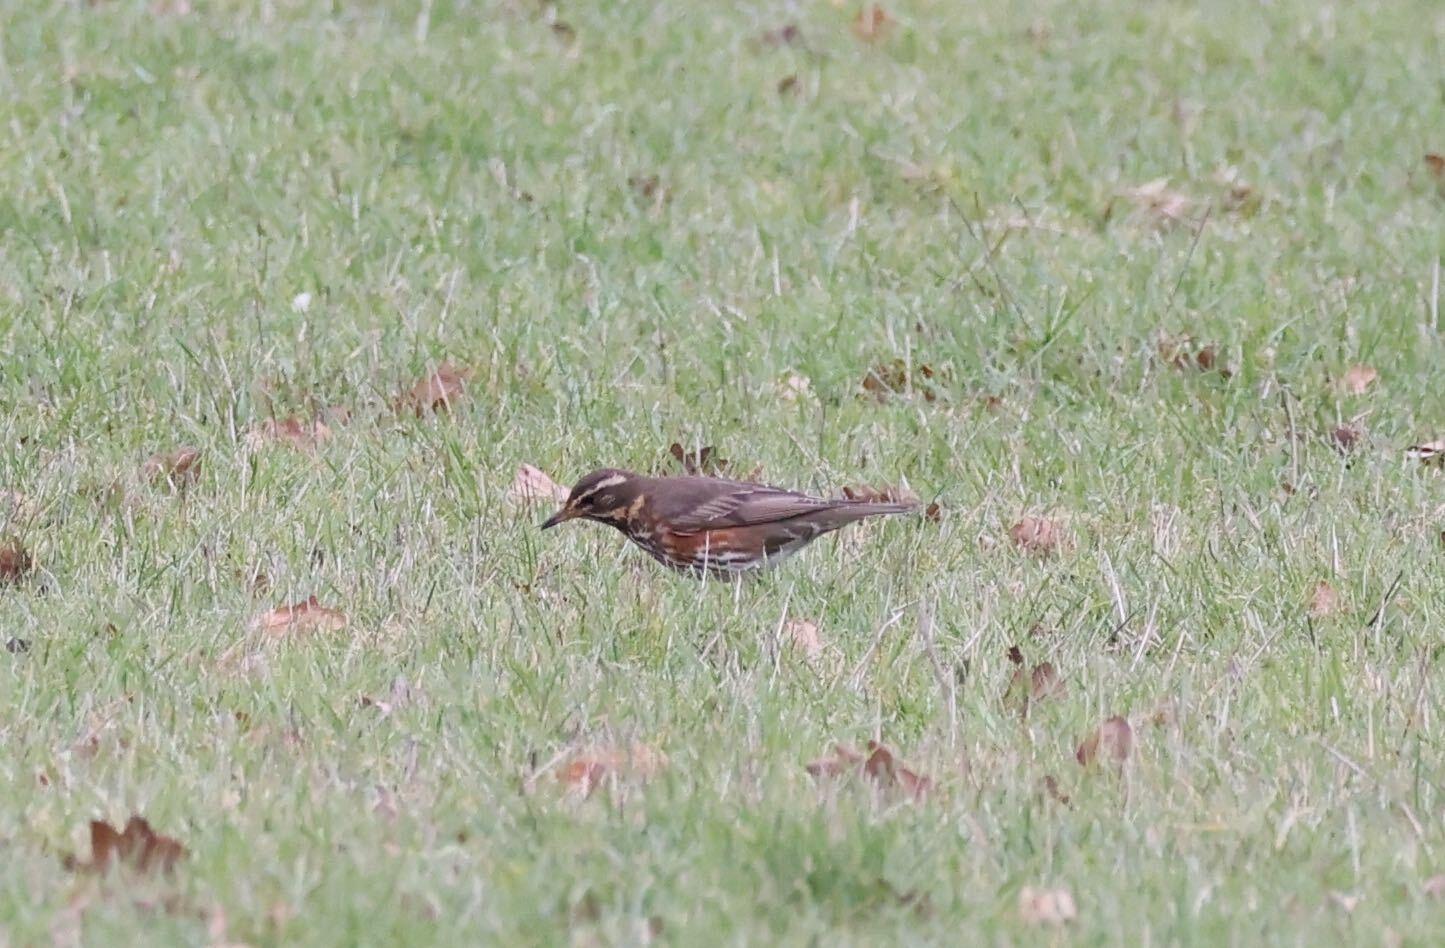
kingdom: Animalia
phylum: Chordata
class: Aves
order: Passeriformes
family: Turdidae
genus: Turdus
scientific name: Turdus iliacus
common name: Redwing
